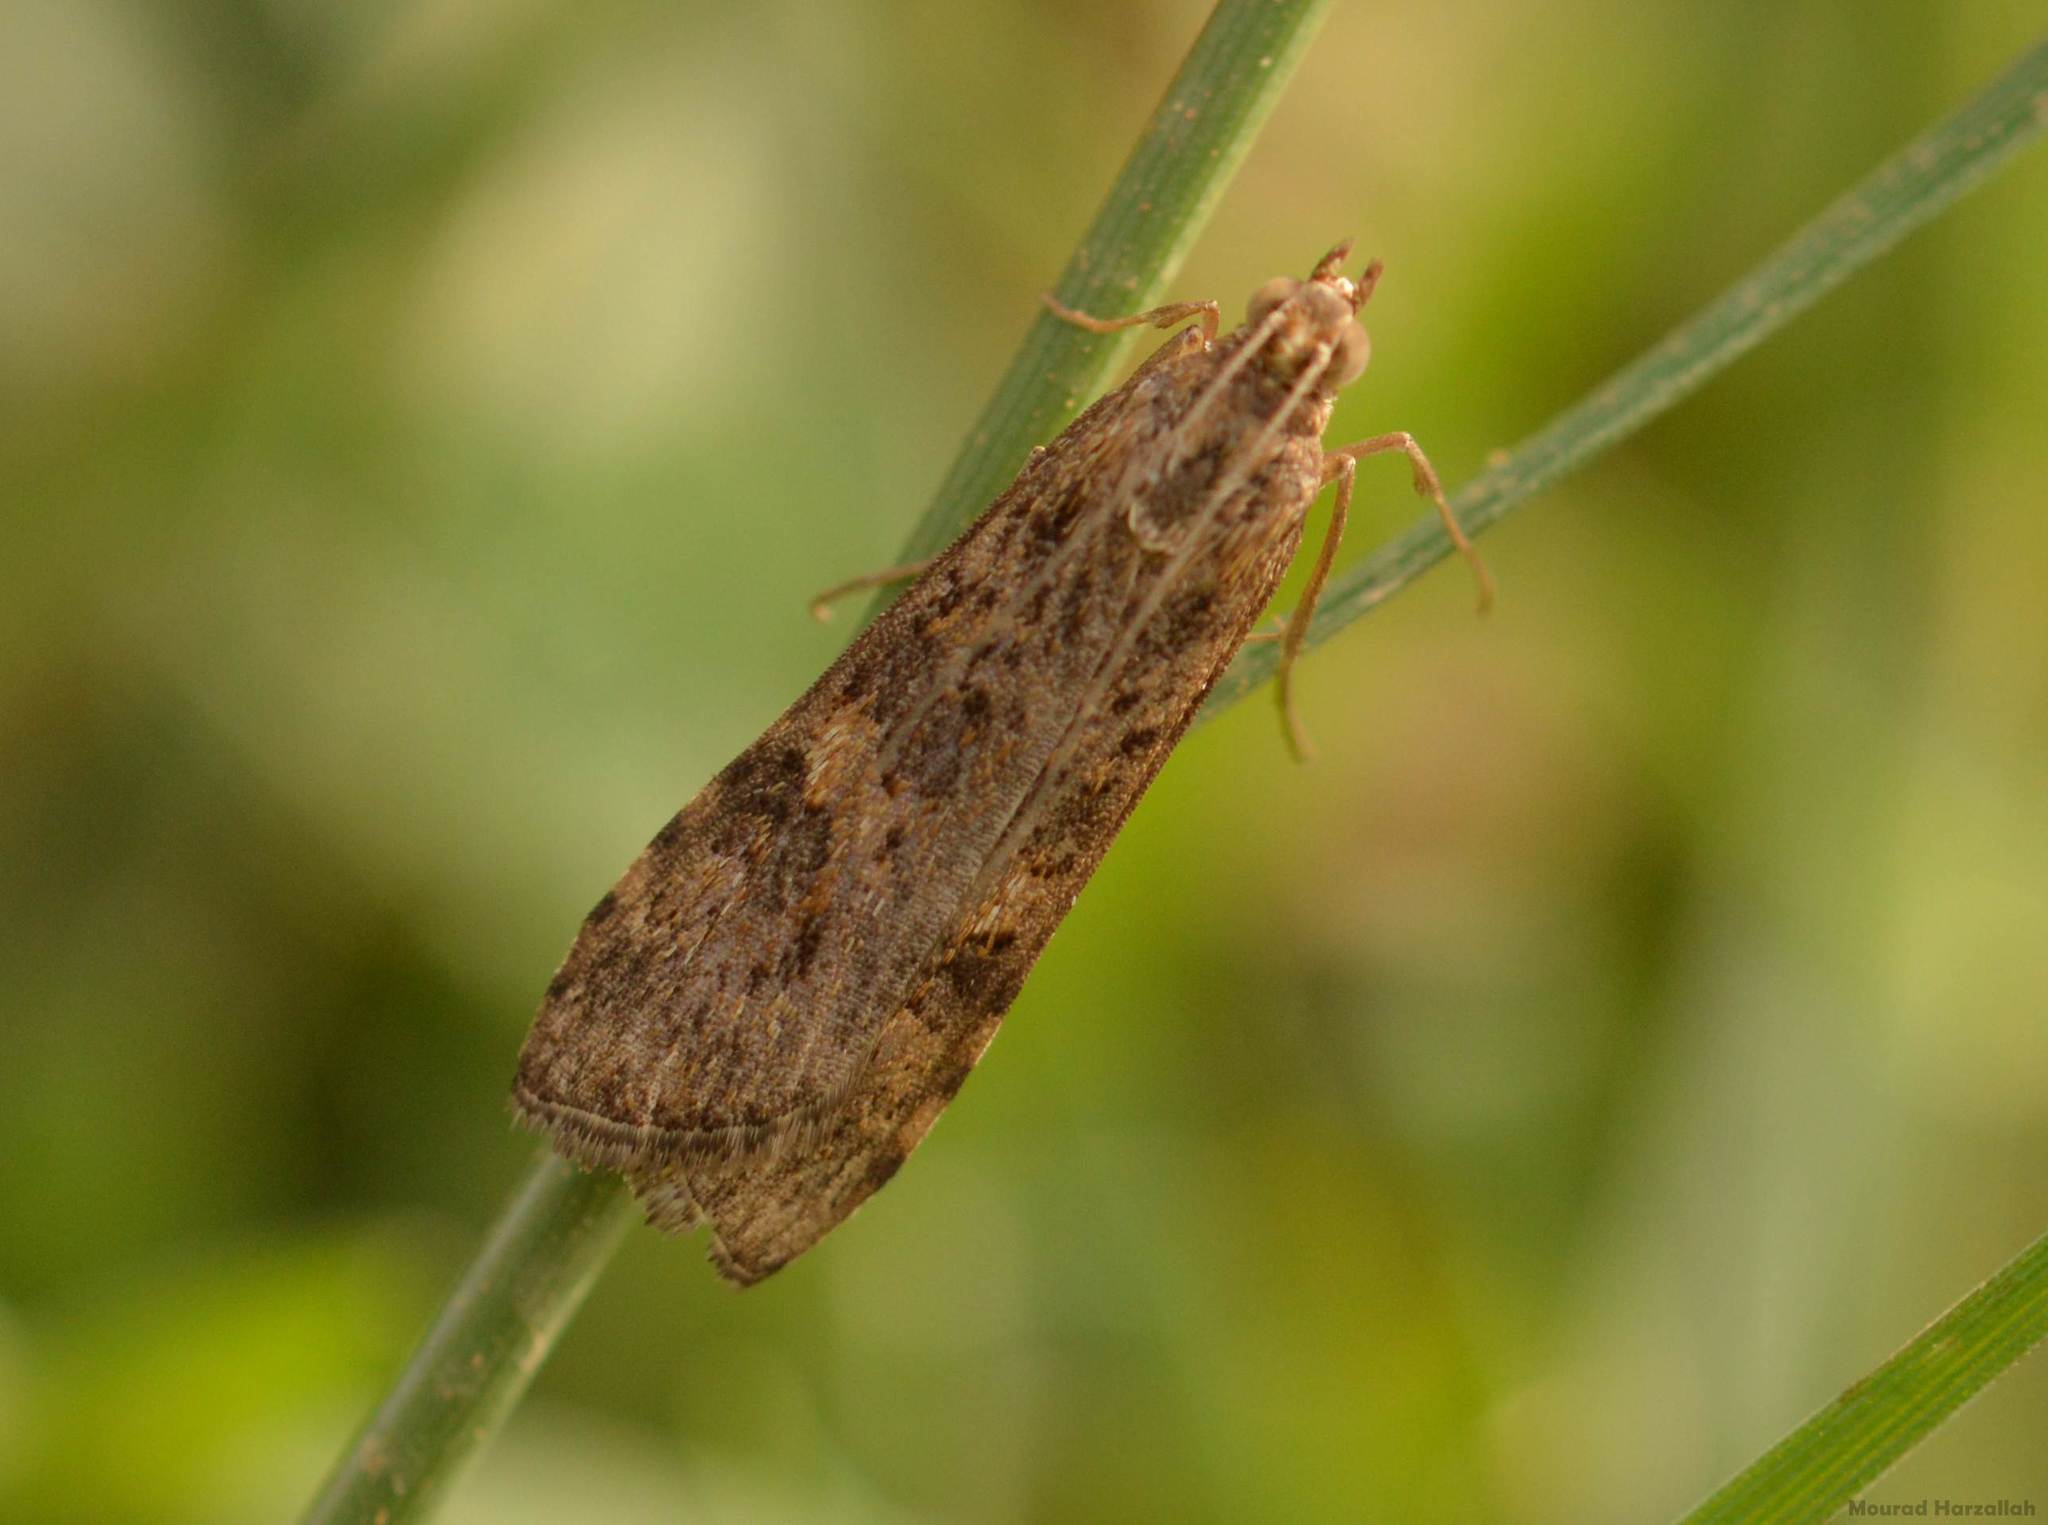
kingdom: Animalia
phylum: Arthropoda
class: Insecta
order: Lepidoptera
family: Crambidae
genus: Nomophila
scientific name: Nomophila noctuella
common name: Rush veneer
